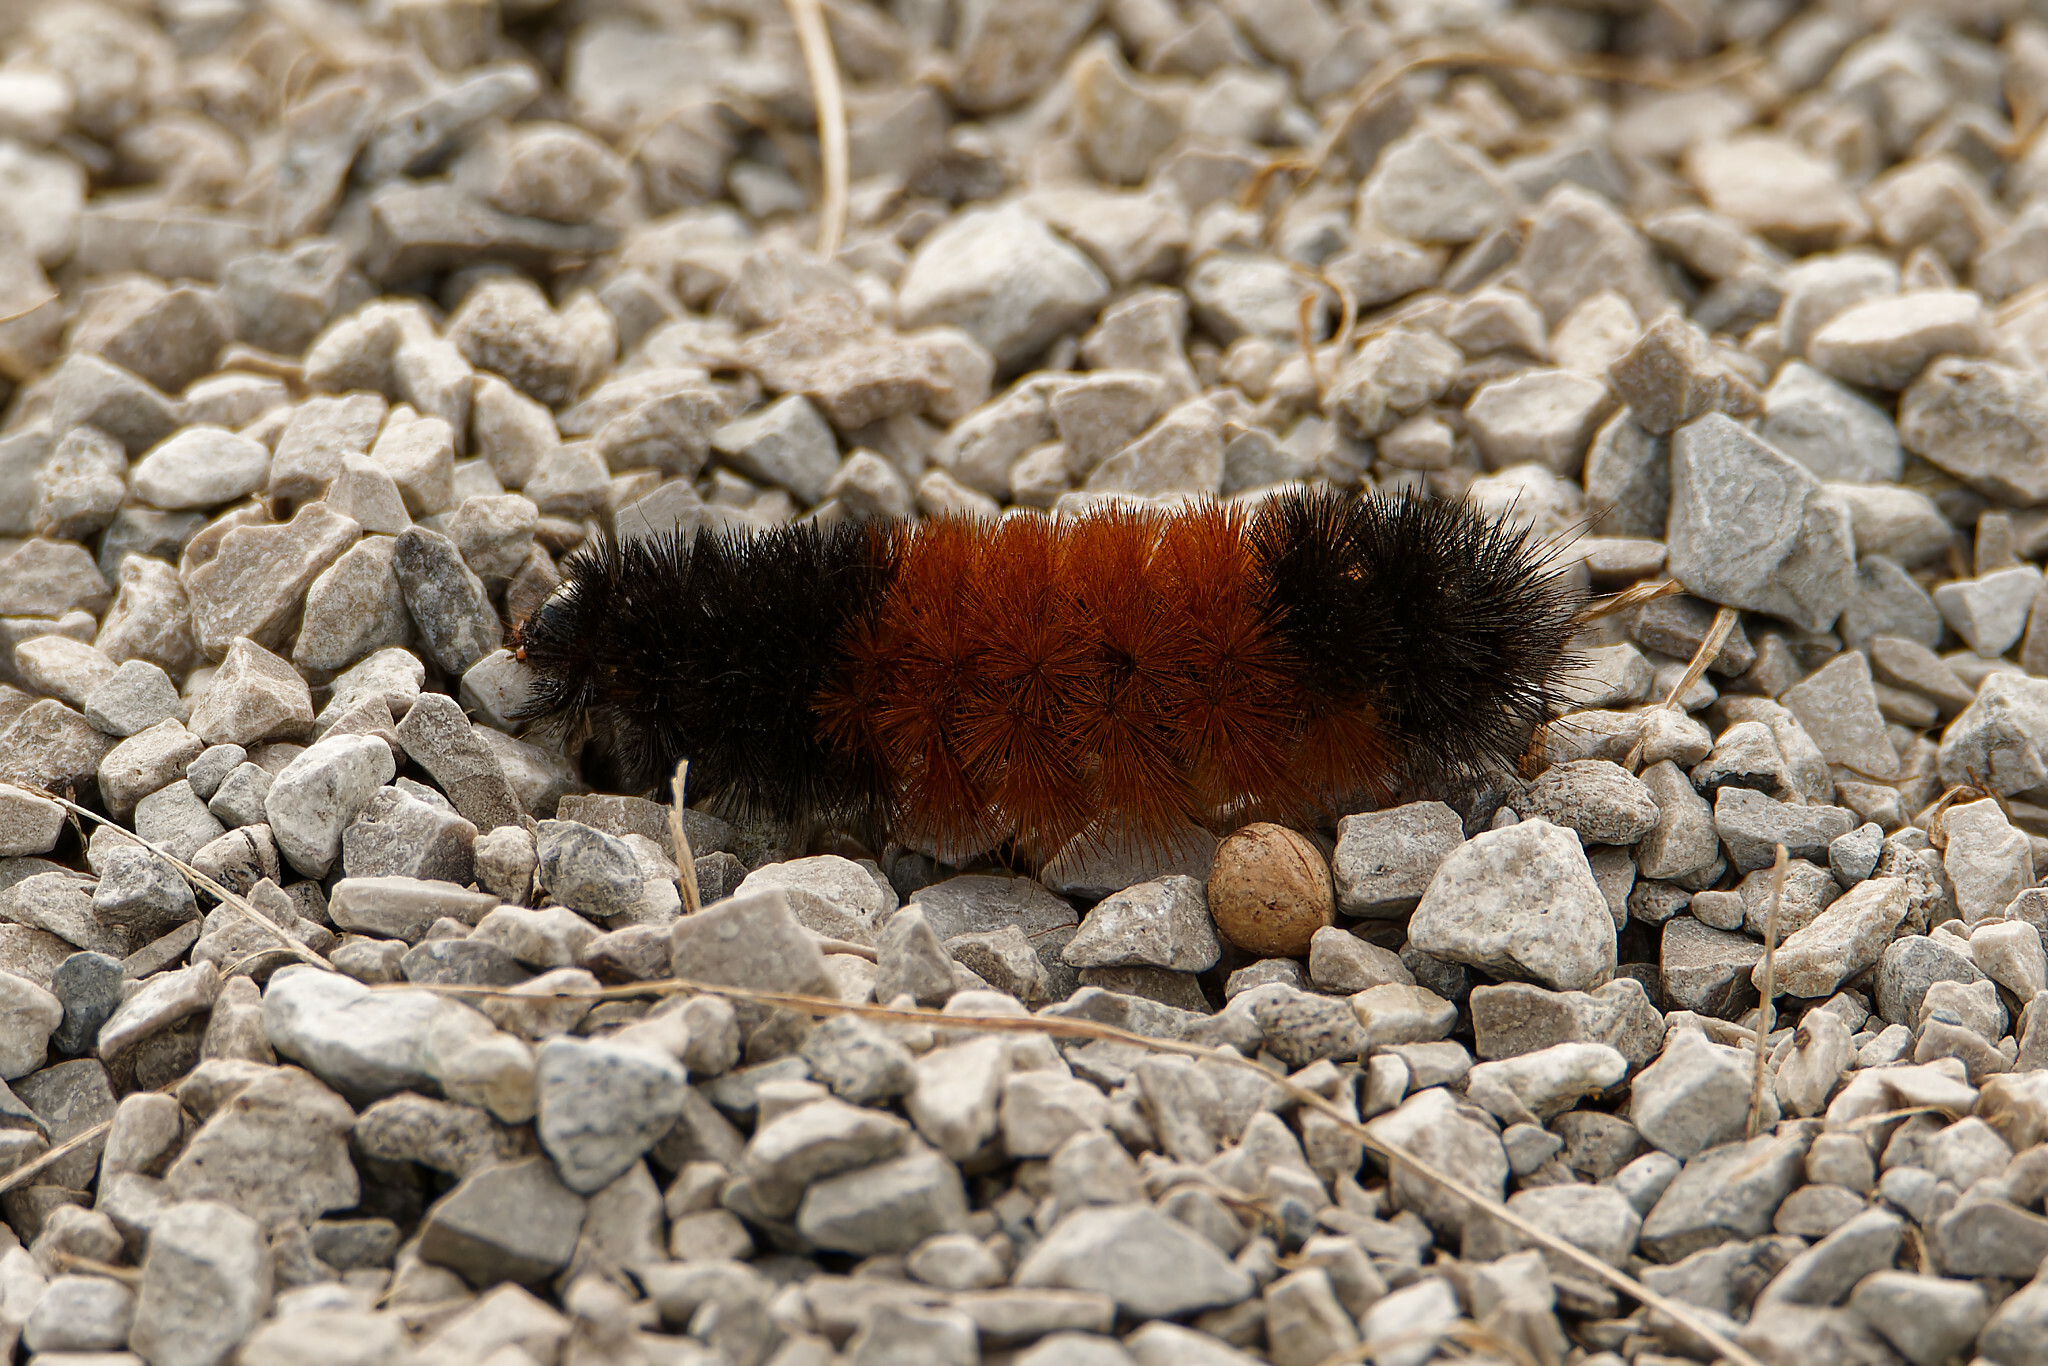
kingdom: Animalia
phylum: Arthropoda
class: Insecta
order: Lepidoptera
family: Erebidae
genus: Pyrrharctia
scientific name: Pyrrharctia isabella
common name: Isabella tiger moth
